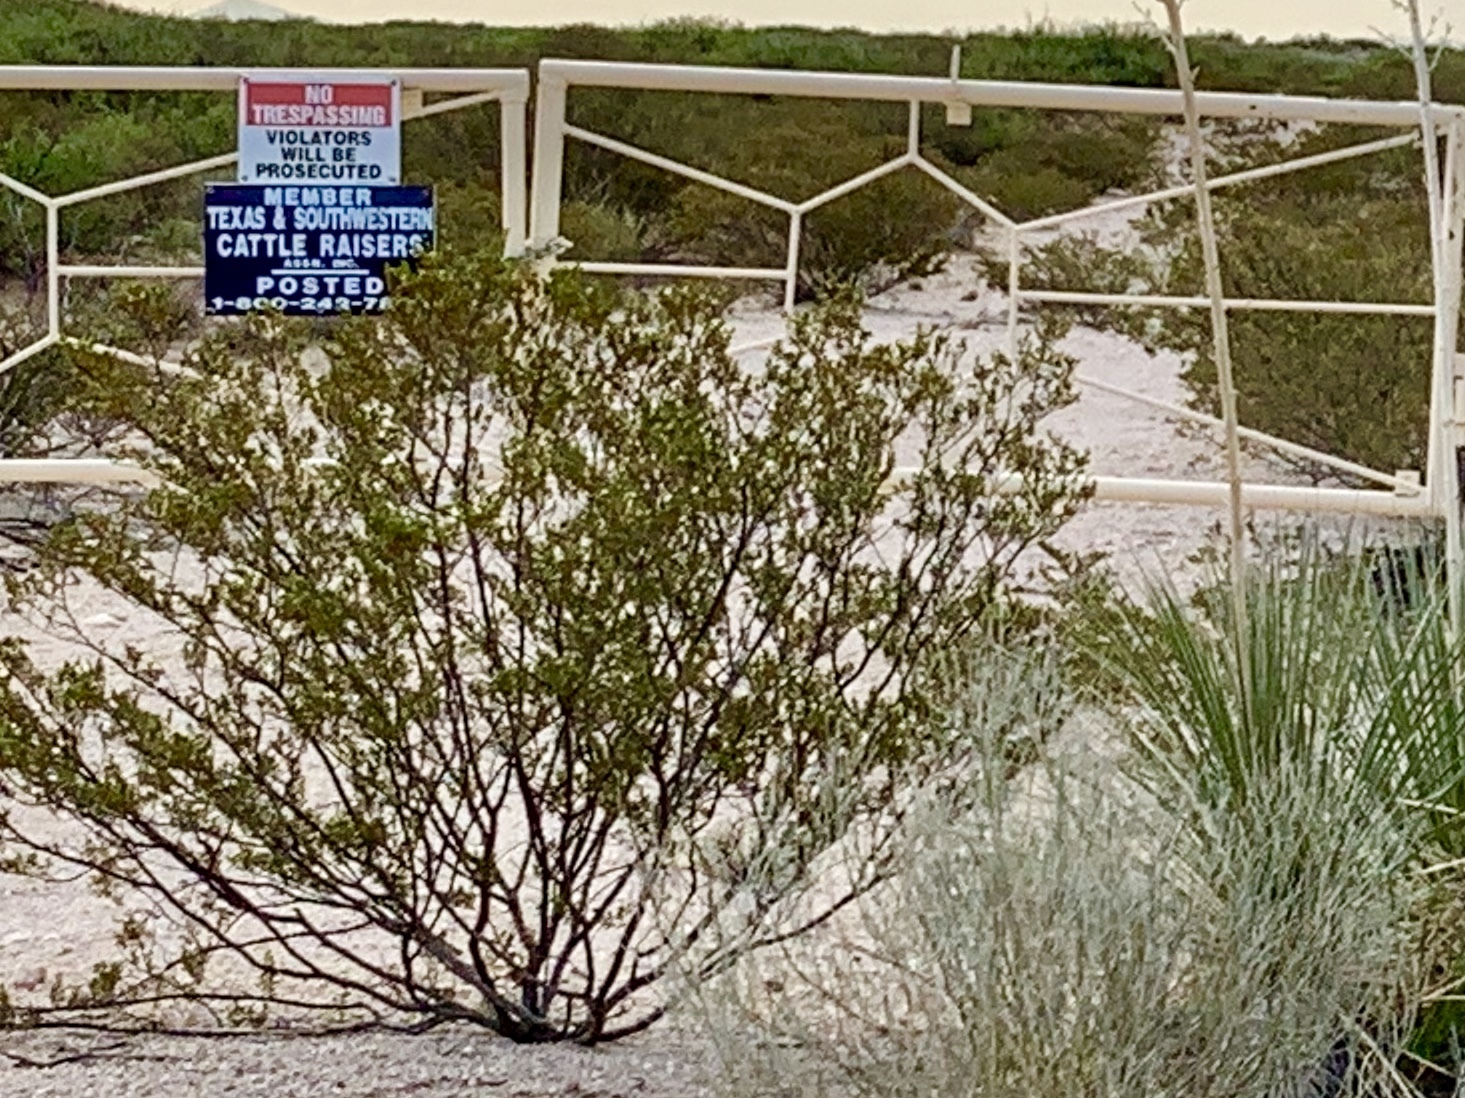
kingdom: Plantae
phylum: Tracheophyta
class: Magnoliopsida
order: Zygophyllales
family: Zygophyllaceae
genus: Larrea
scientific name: Larrea tridentata
